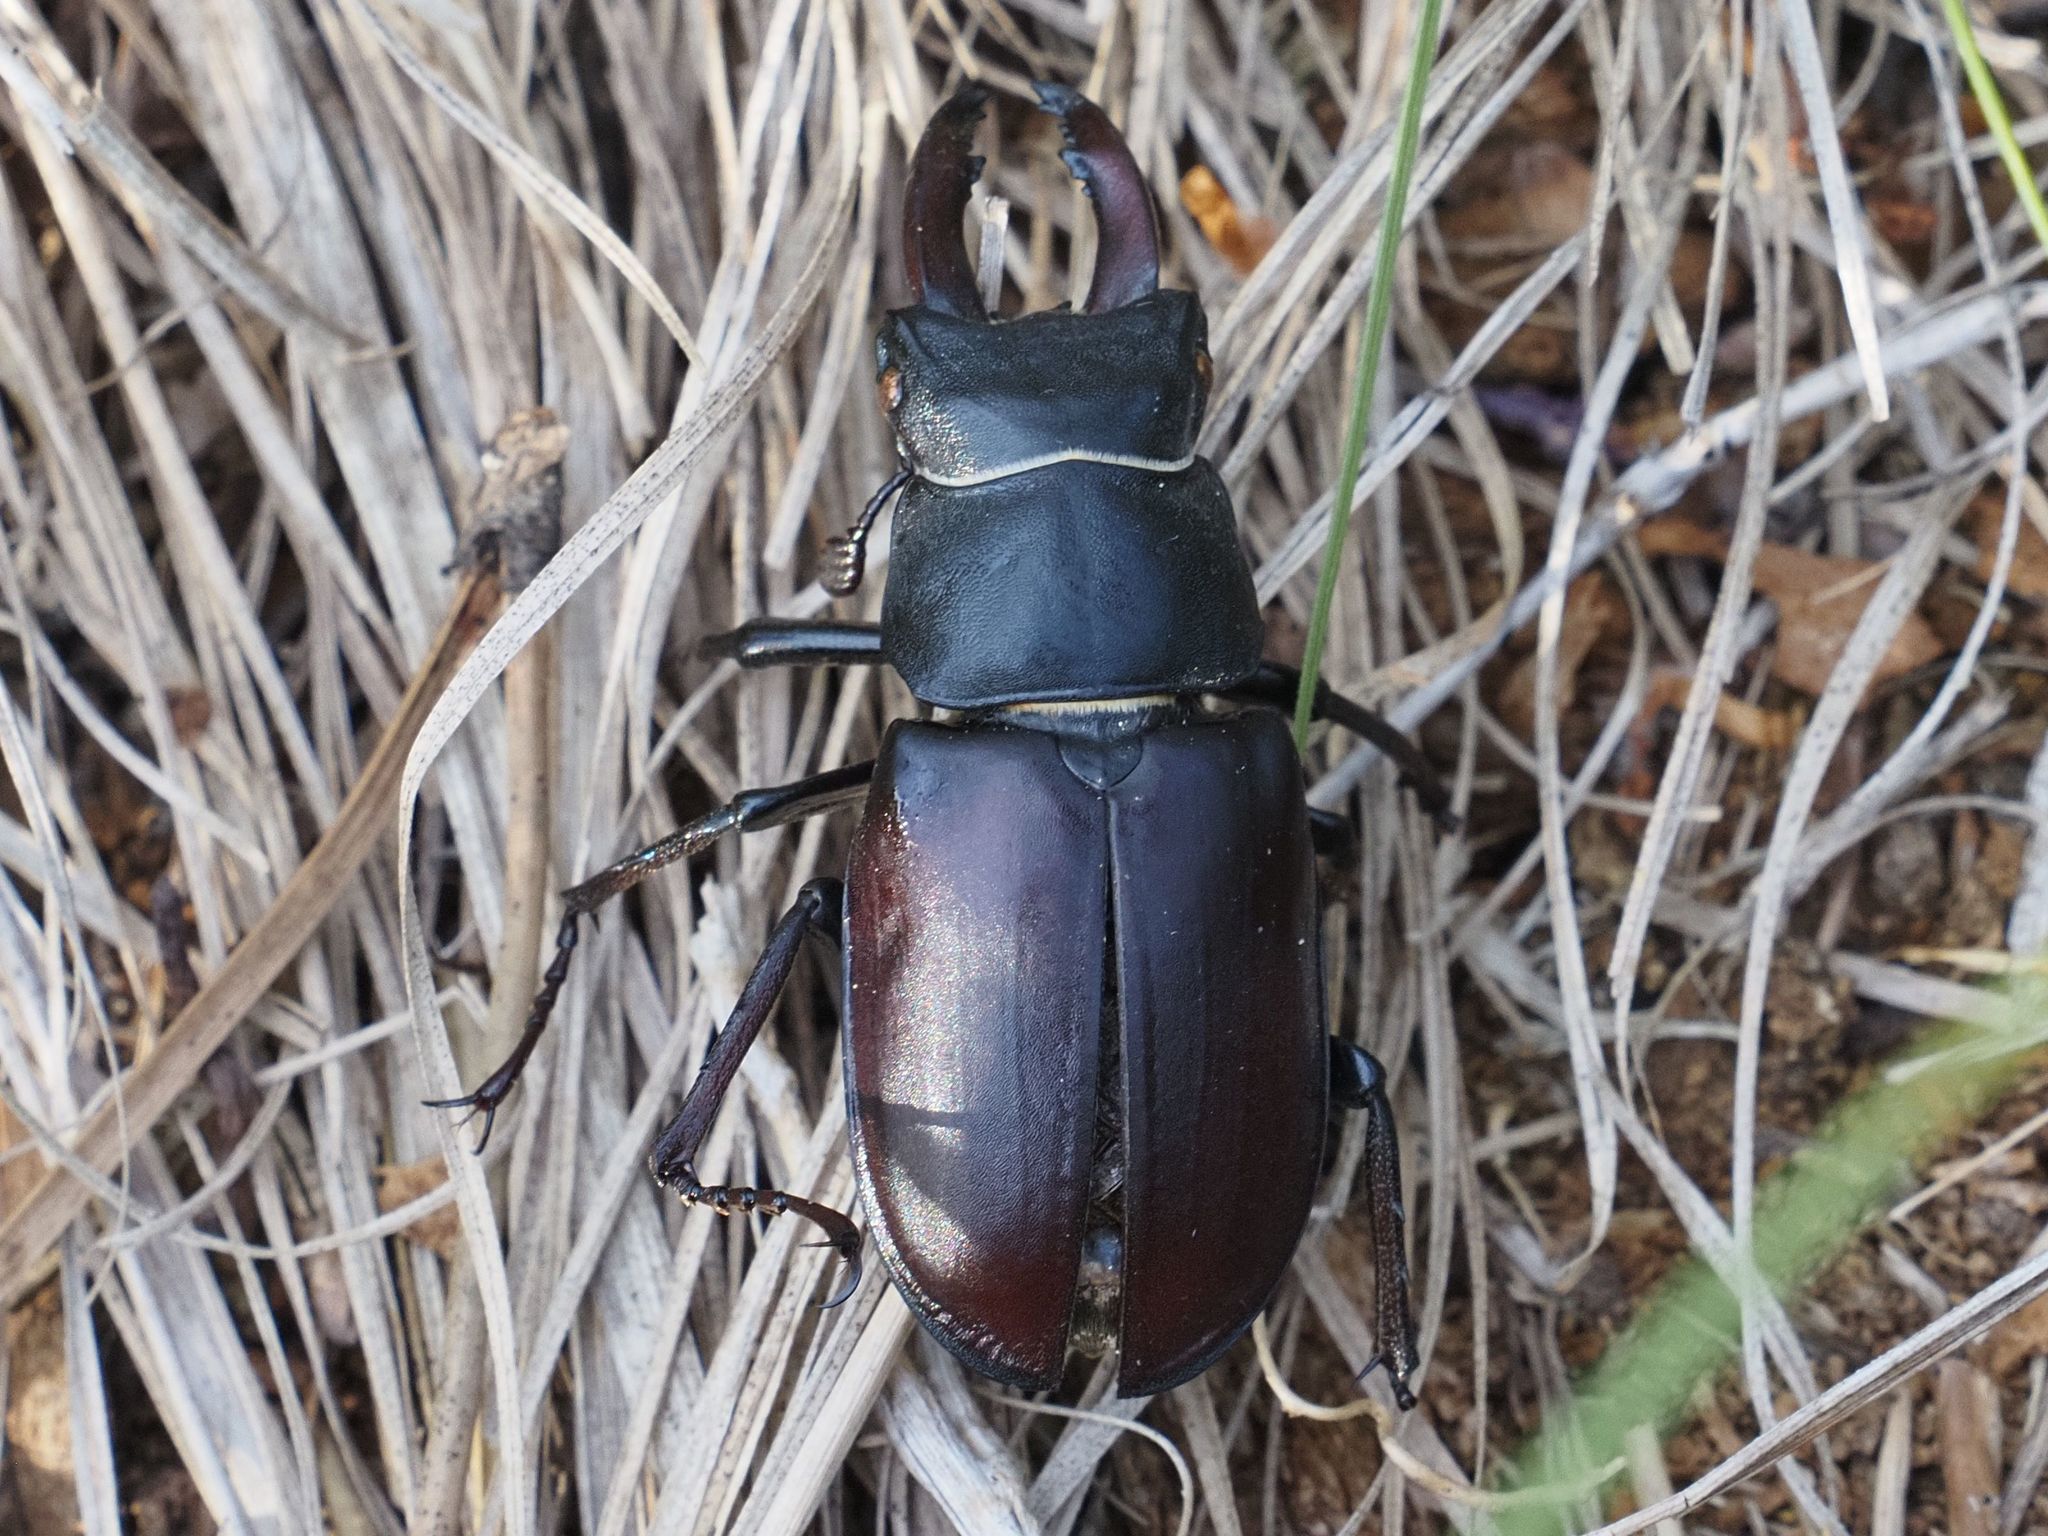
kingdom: Animalia
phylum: Arthropoda
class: Insecta
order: Coleoptera
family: Lucanidae
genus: Lucanus
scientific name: Lucanus cervus
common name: Stag beetle
